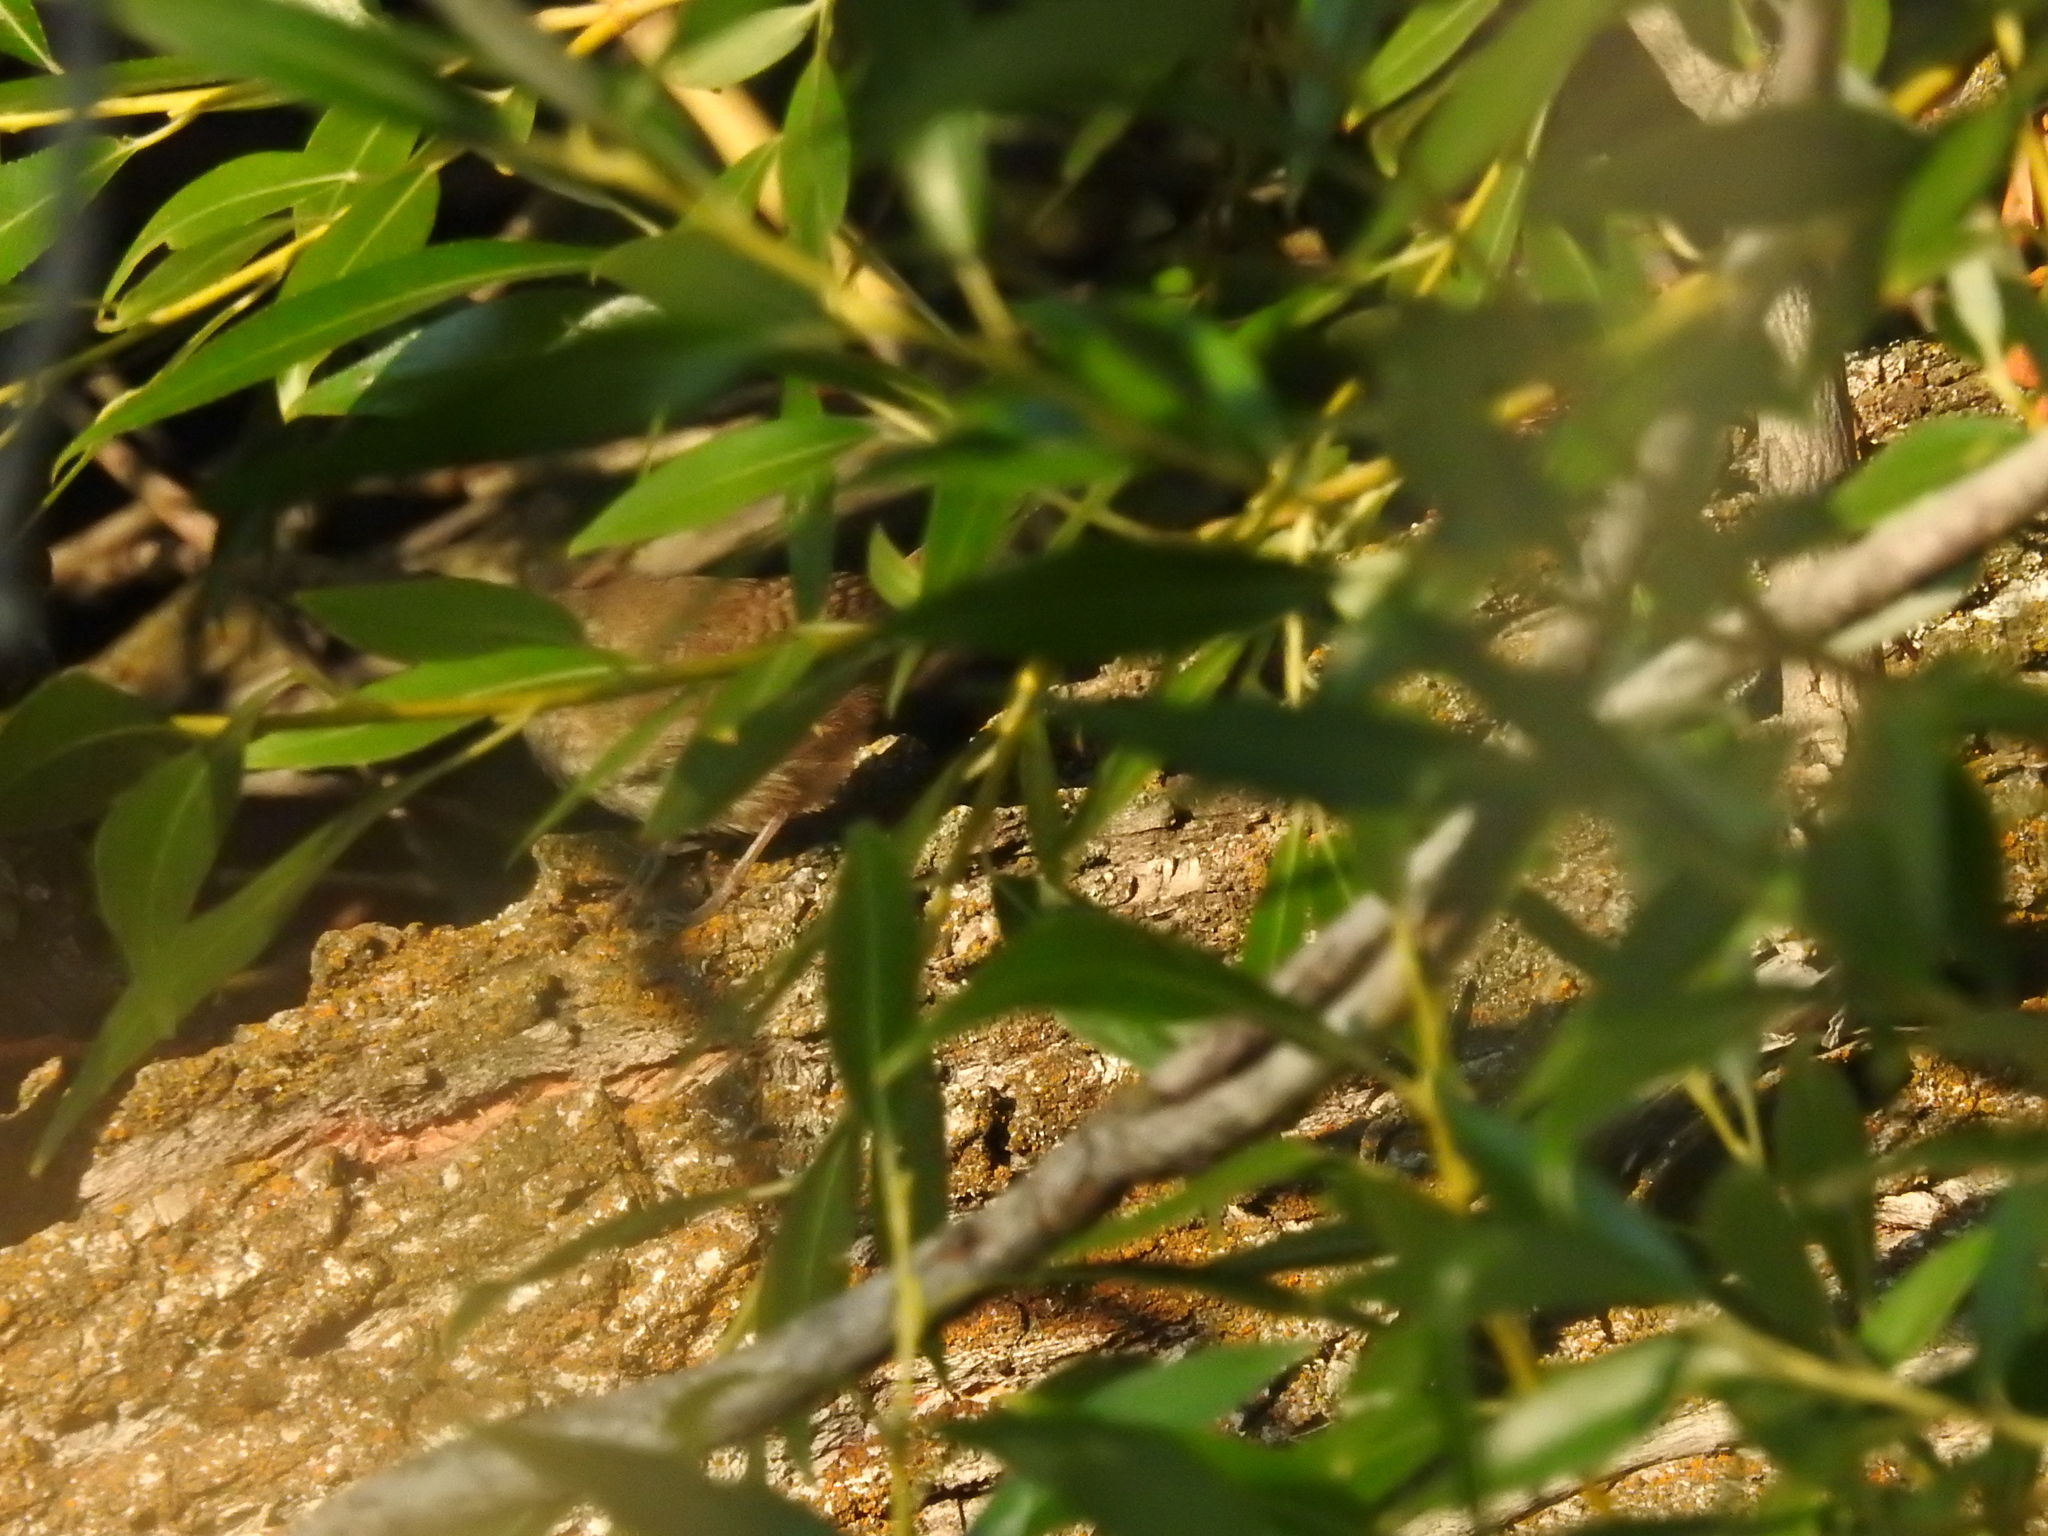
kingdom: Animalia
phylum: Chordata
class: Aves
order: Passeriformes
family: Troglodytidae
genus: Troglodytes
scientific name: Troglodytes aedon
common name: House wren
